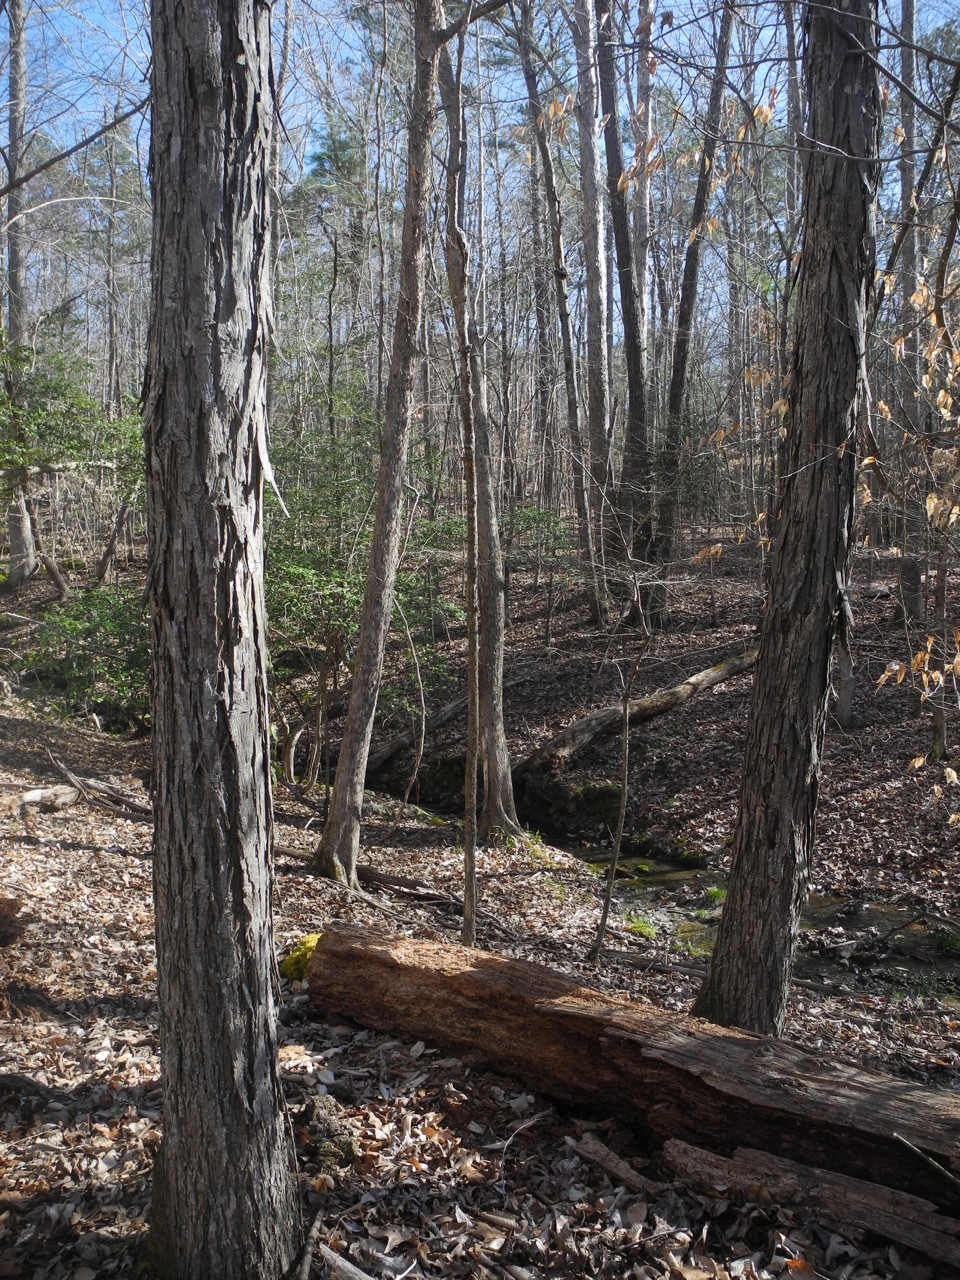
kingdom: Plantae
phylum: Tracheophyta
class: Magnoliopsida
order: Fagales
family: Juglandaceae
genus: Carya
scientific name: Carya ovata
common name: Shagbark hickory
